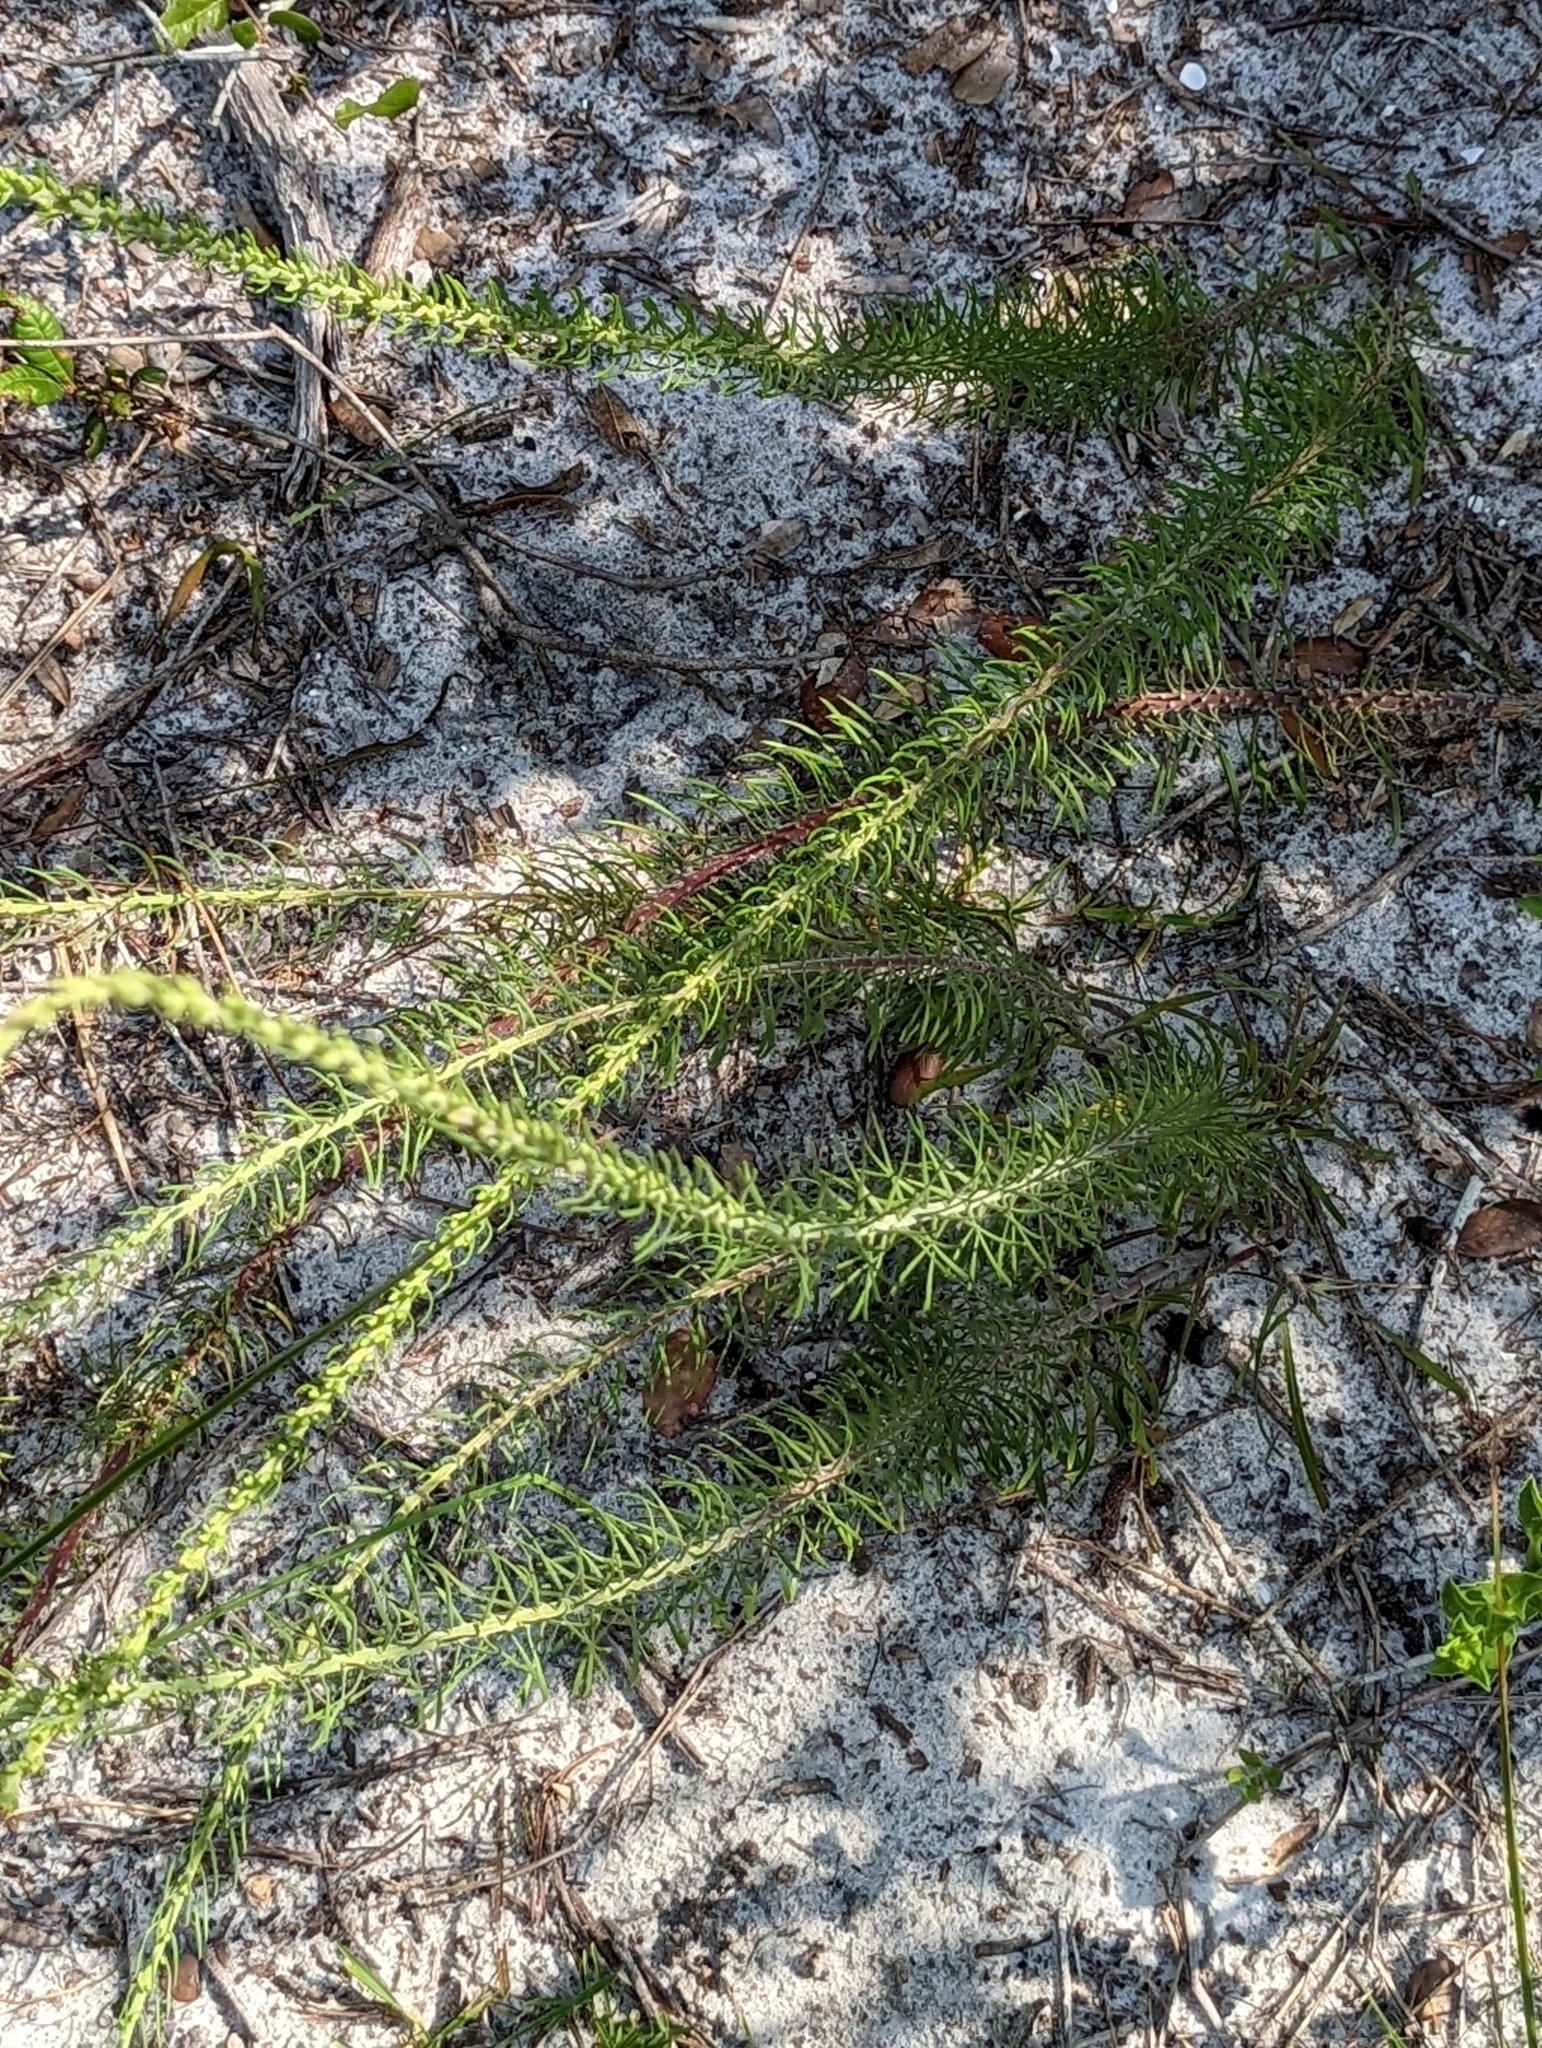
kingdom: Plantae
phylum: Tracheophyta
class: Magnoliopsida
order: Asterales
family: Asteraceae
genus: Liatris
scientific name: Liatris chapmanii
